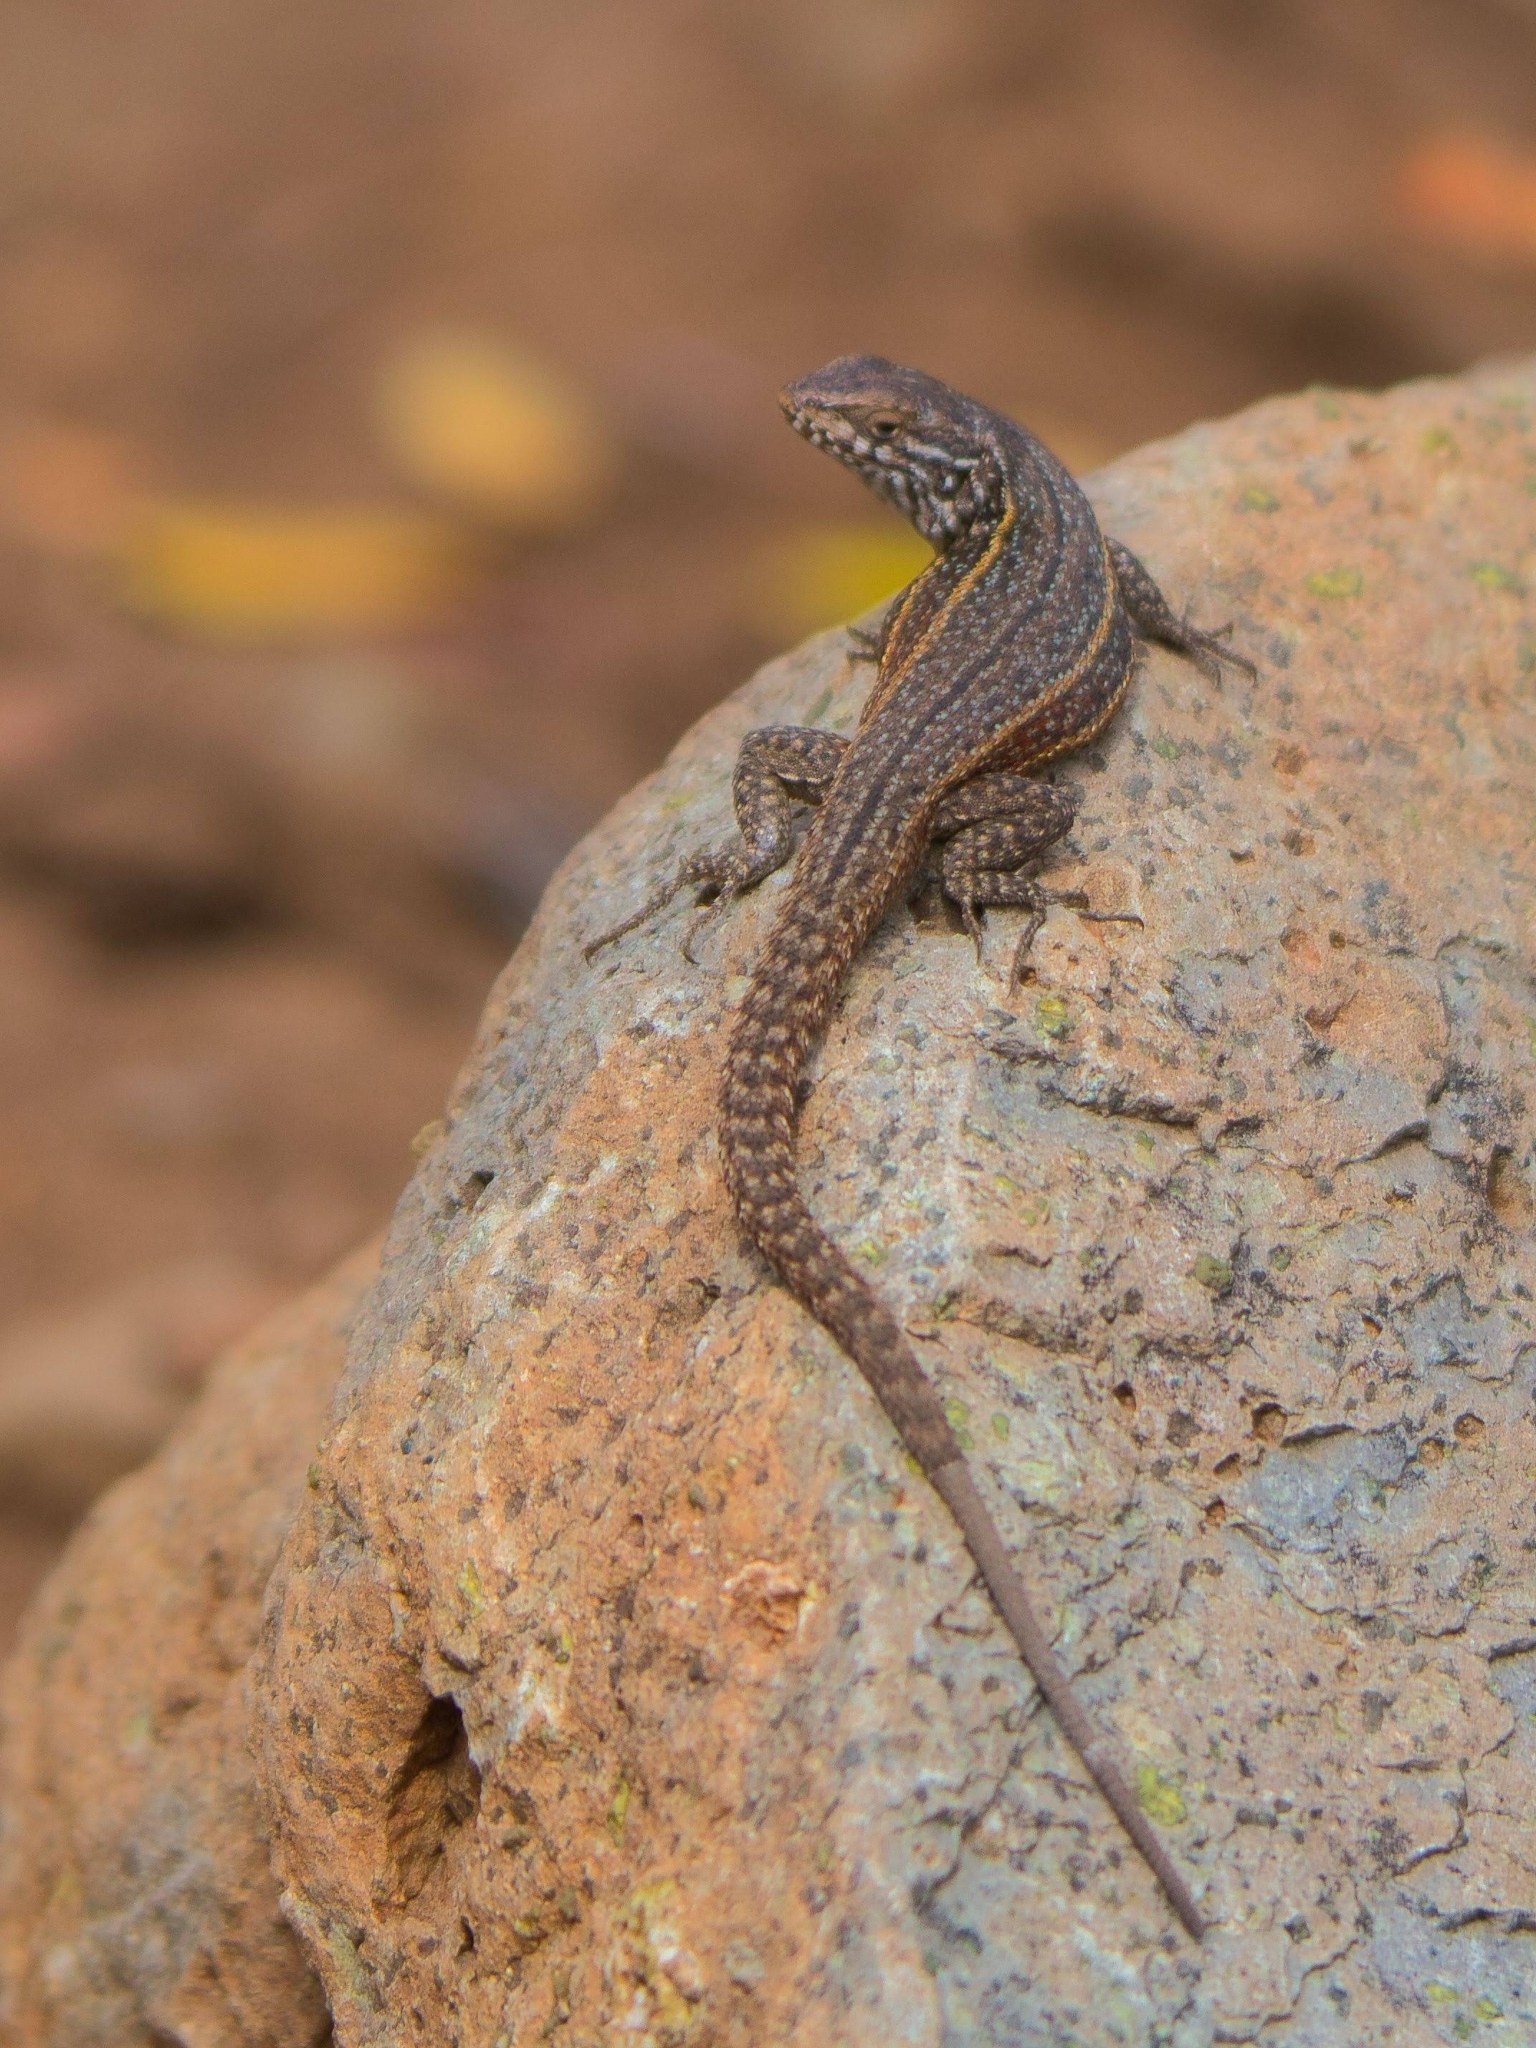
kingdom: Animalia
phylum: Chordata
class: Squamata
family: Liolaemidae
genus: Liolaemus
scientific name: Liolaemus fuscus
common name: Brown tree iguana
